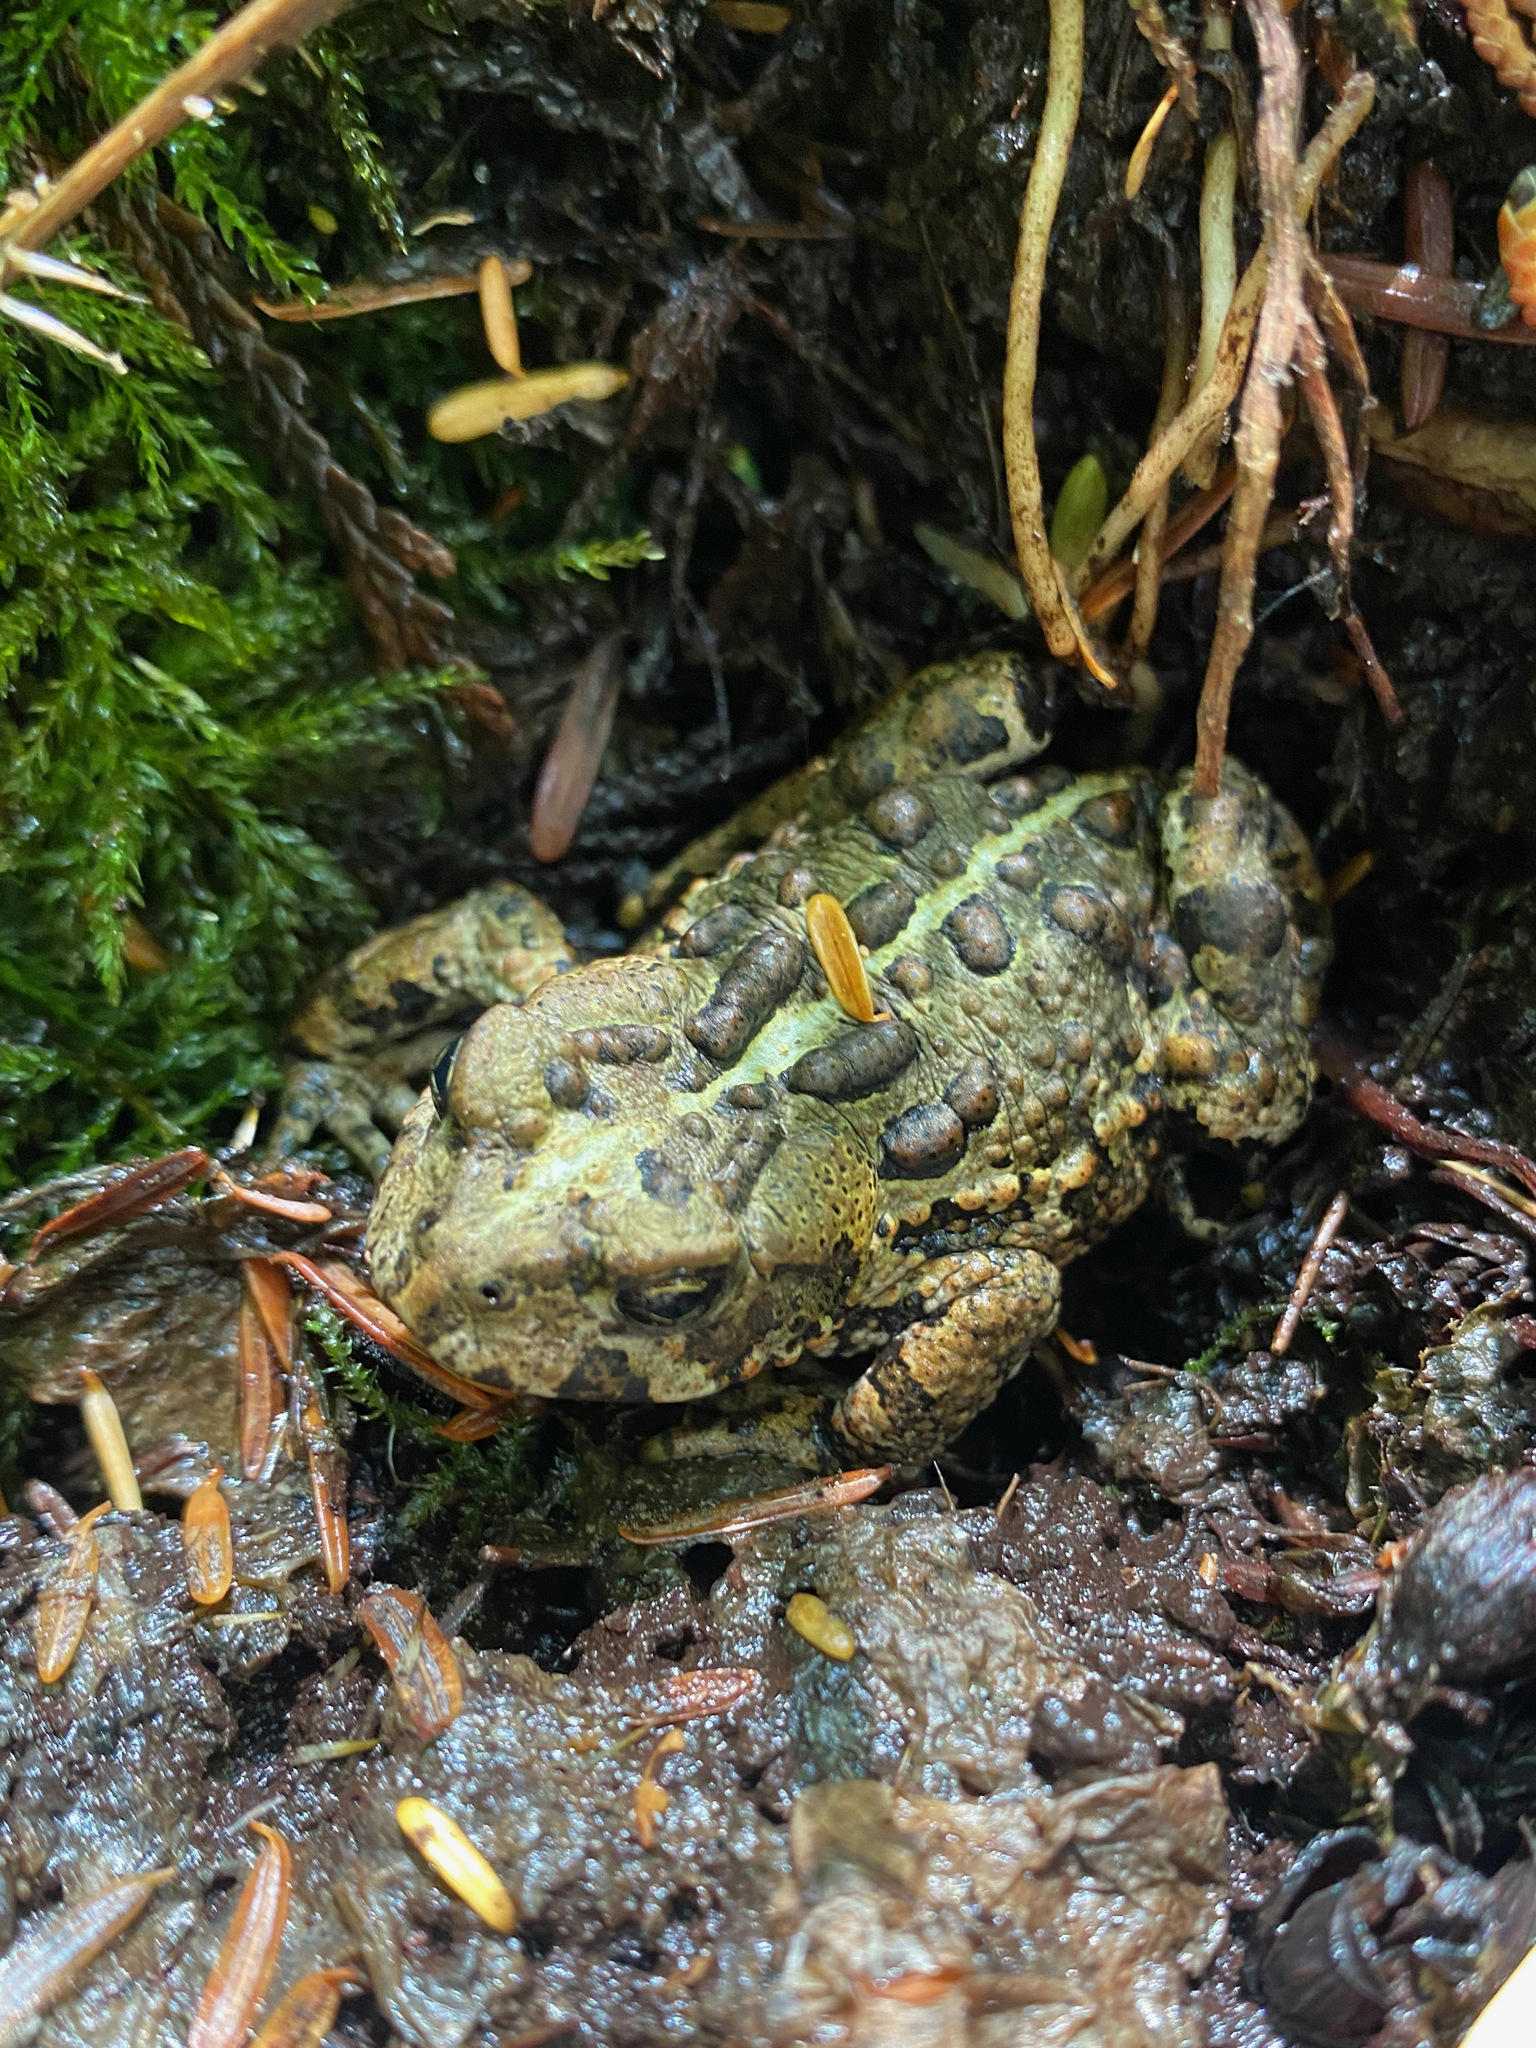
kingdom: Animalia
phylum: Chordata
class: Amphibia
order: Anura
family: Bufonidae
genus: Anaxyrus
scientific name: Anaxyrus boreas
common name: Western toad
